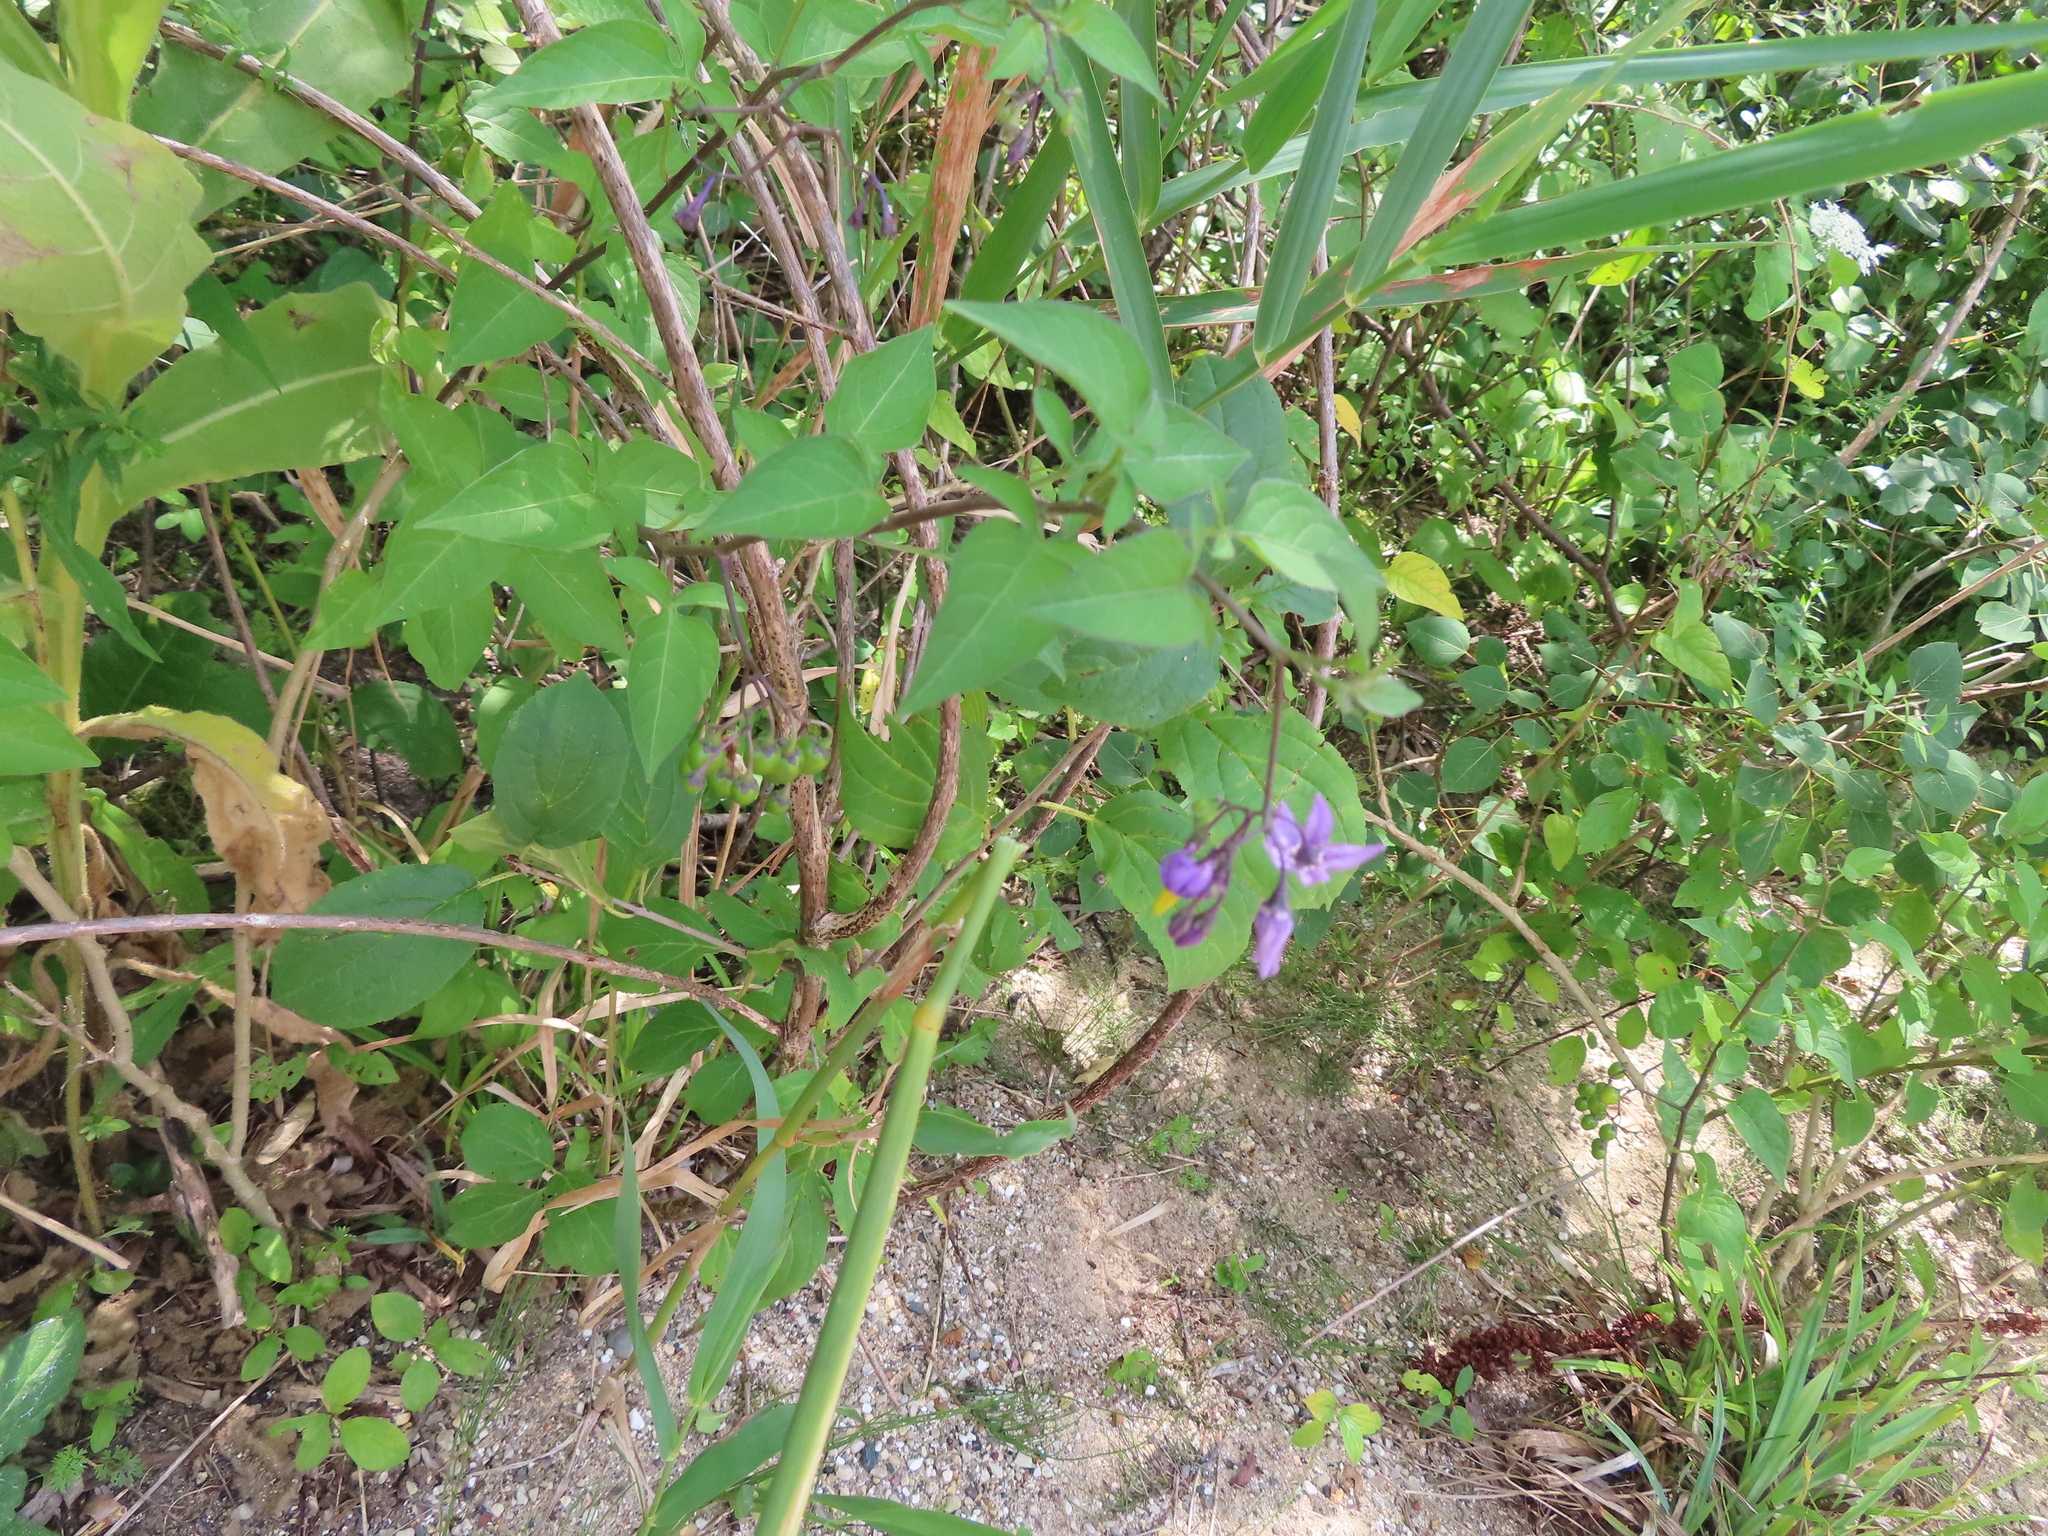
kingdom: Plantae
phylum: Tracheophyta
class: Magnoliopsida
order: Solanales
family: Solanaceae
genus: Solanum
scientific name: Solanum dulcamara
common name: Climbing nightshade
